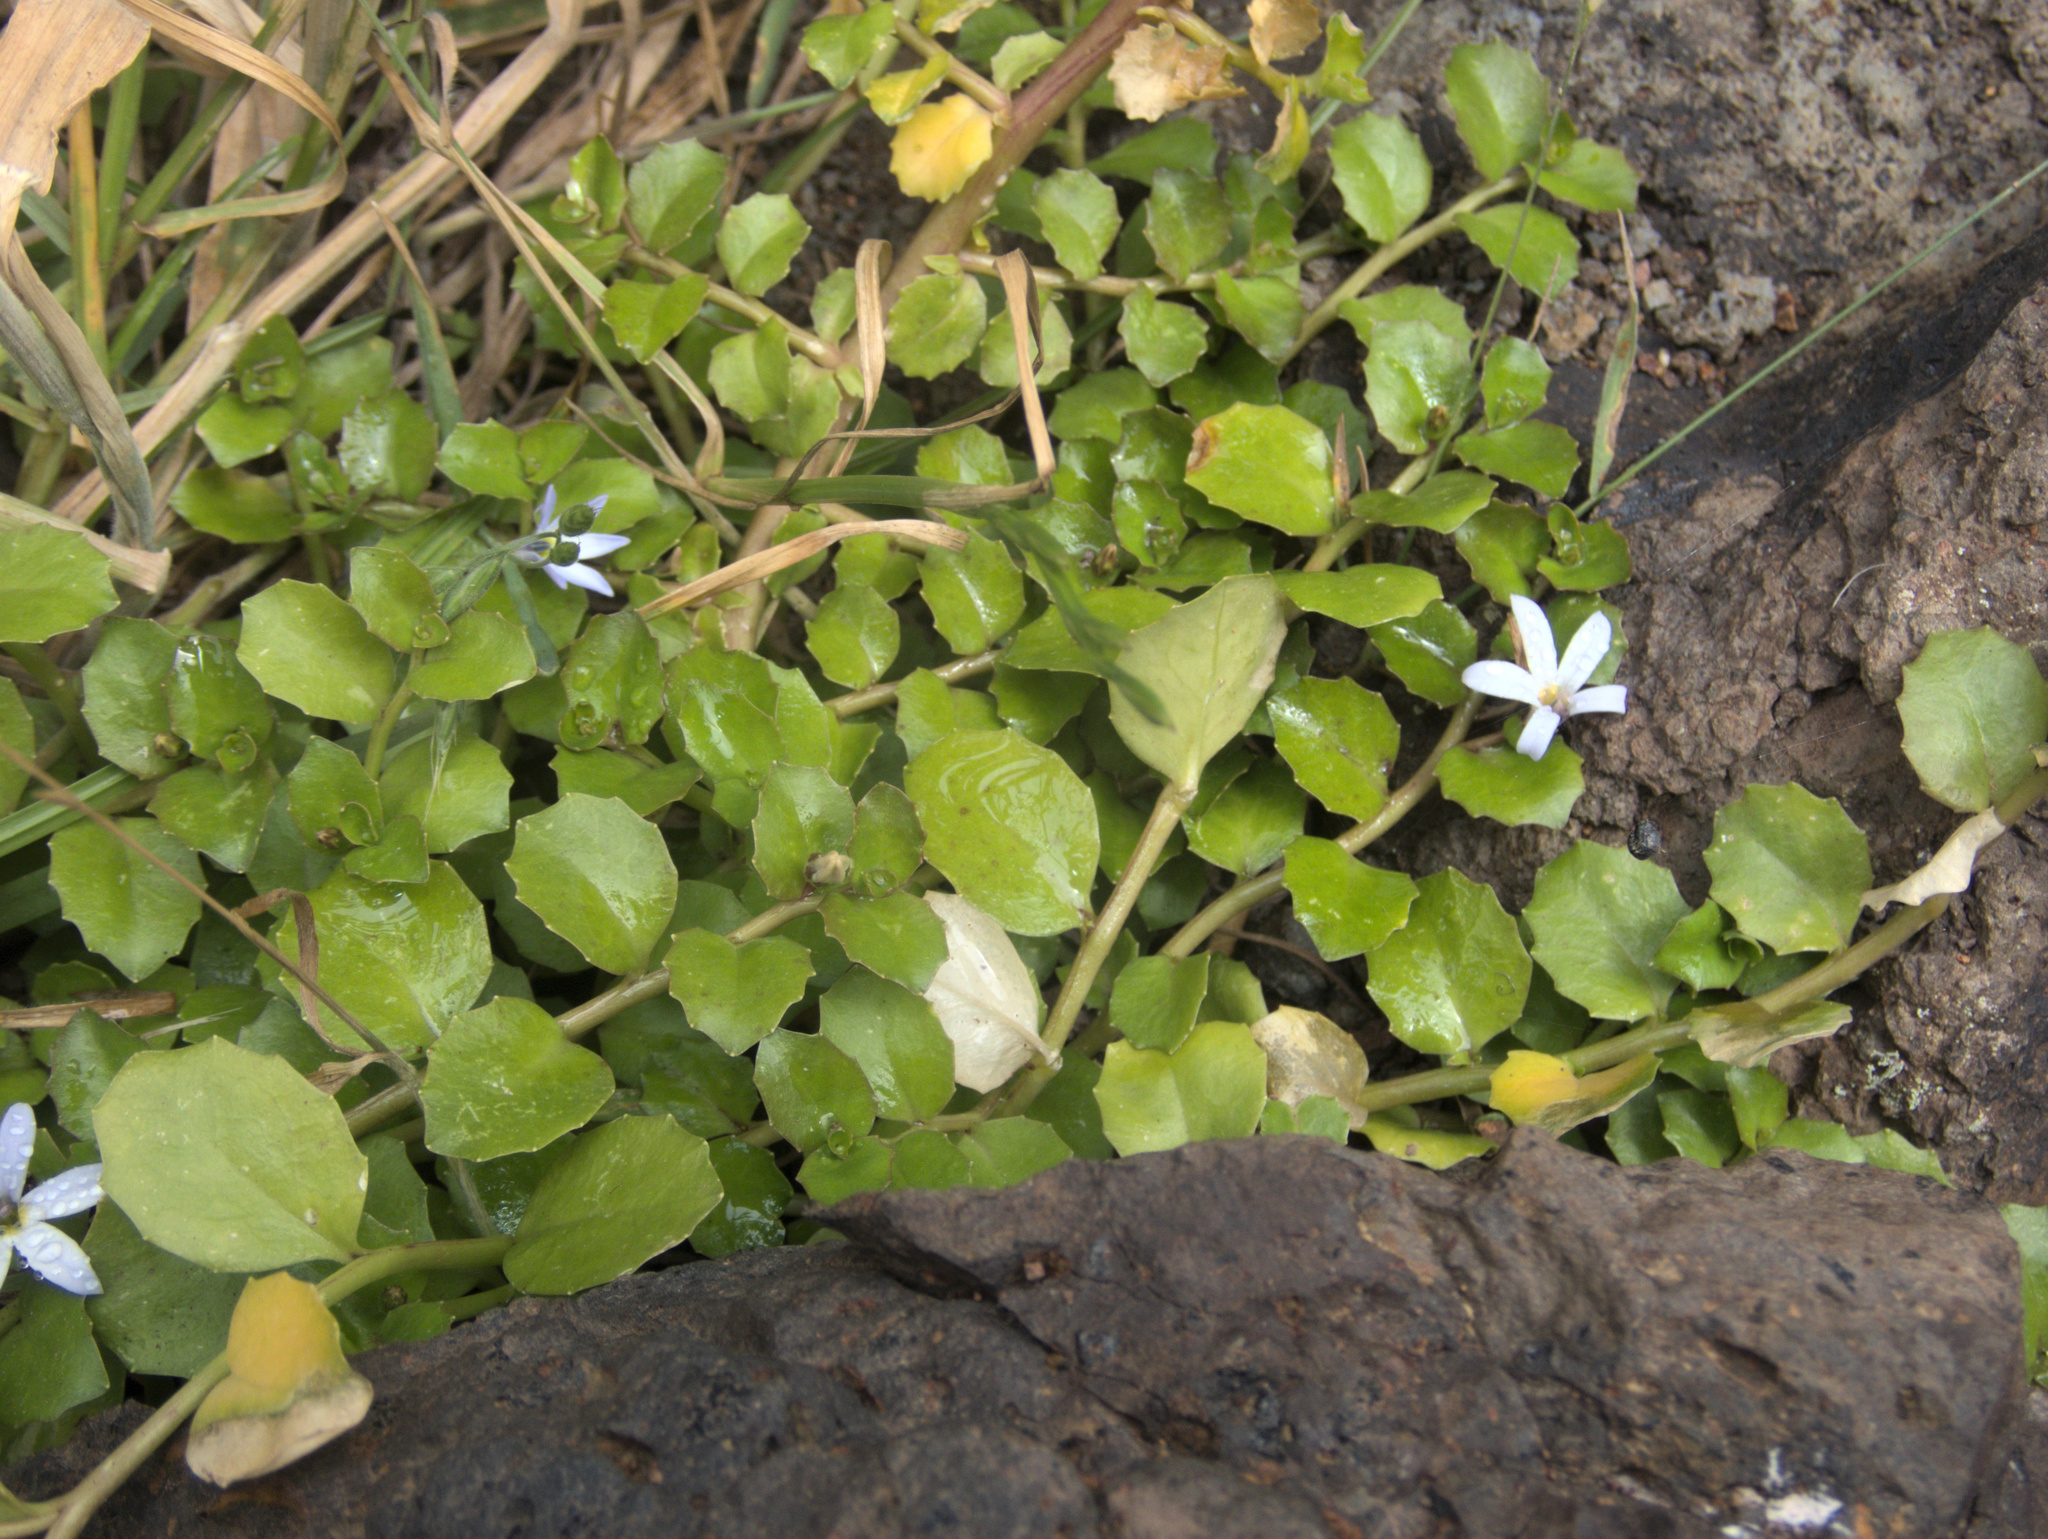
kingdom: Plantae
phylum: Tracheophyta
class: Magnoliopsida
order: Asterales
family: Campanulaceae
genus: Lobelia
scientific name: Lobelia arenaria
